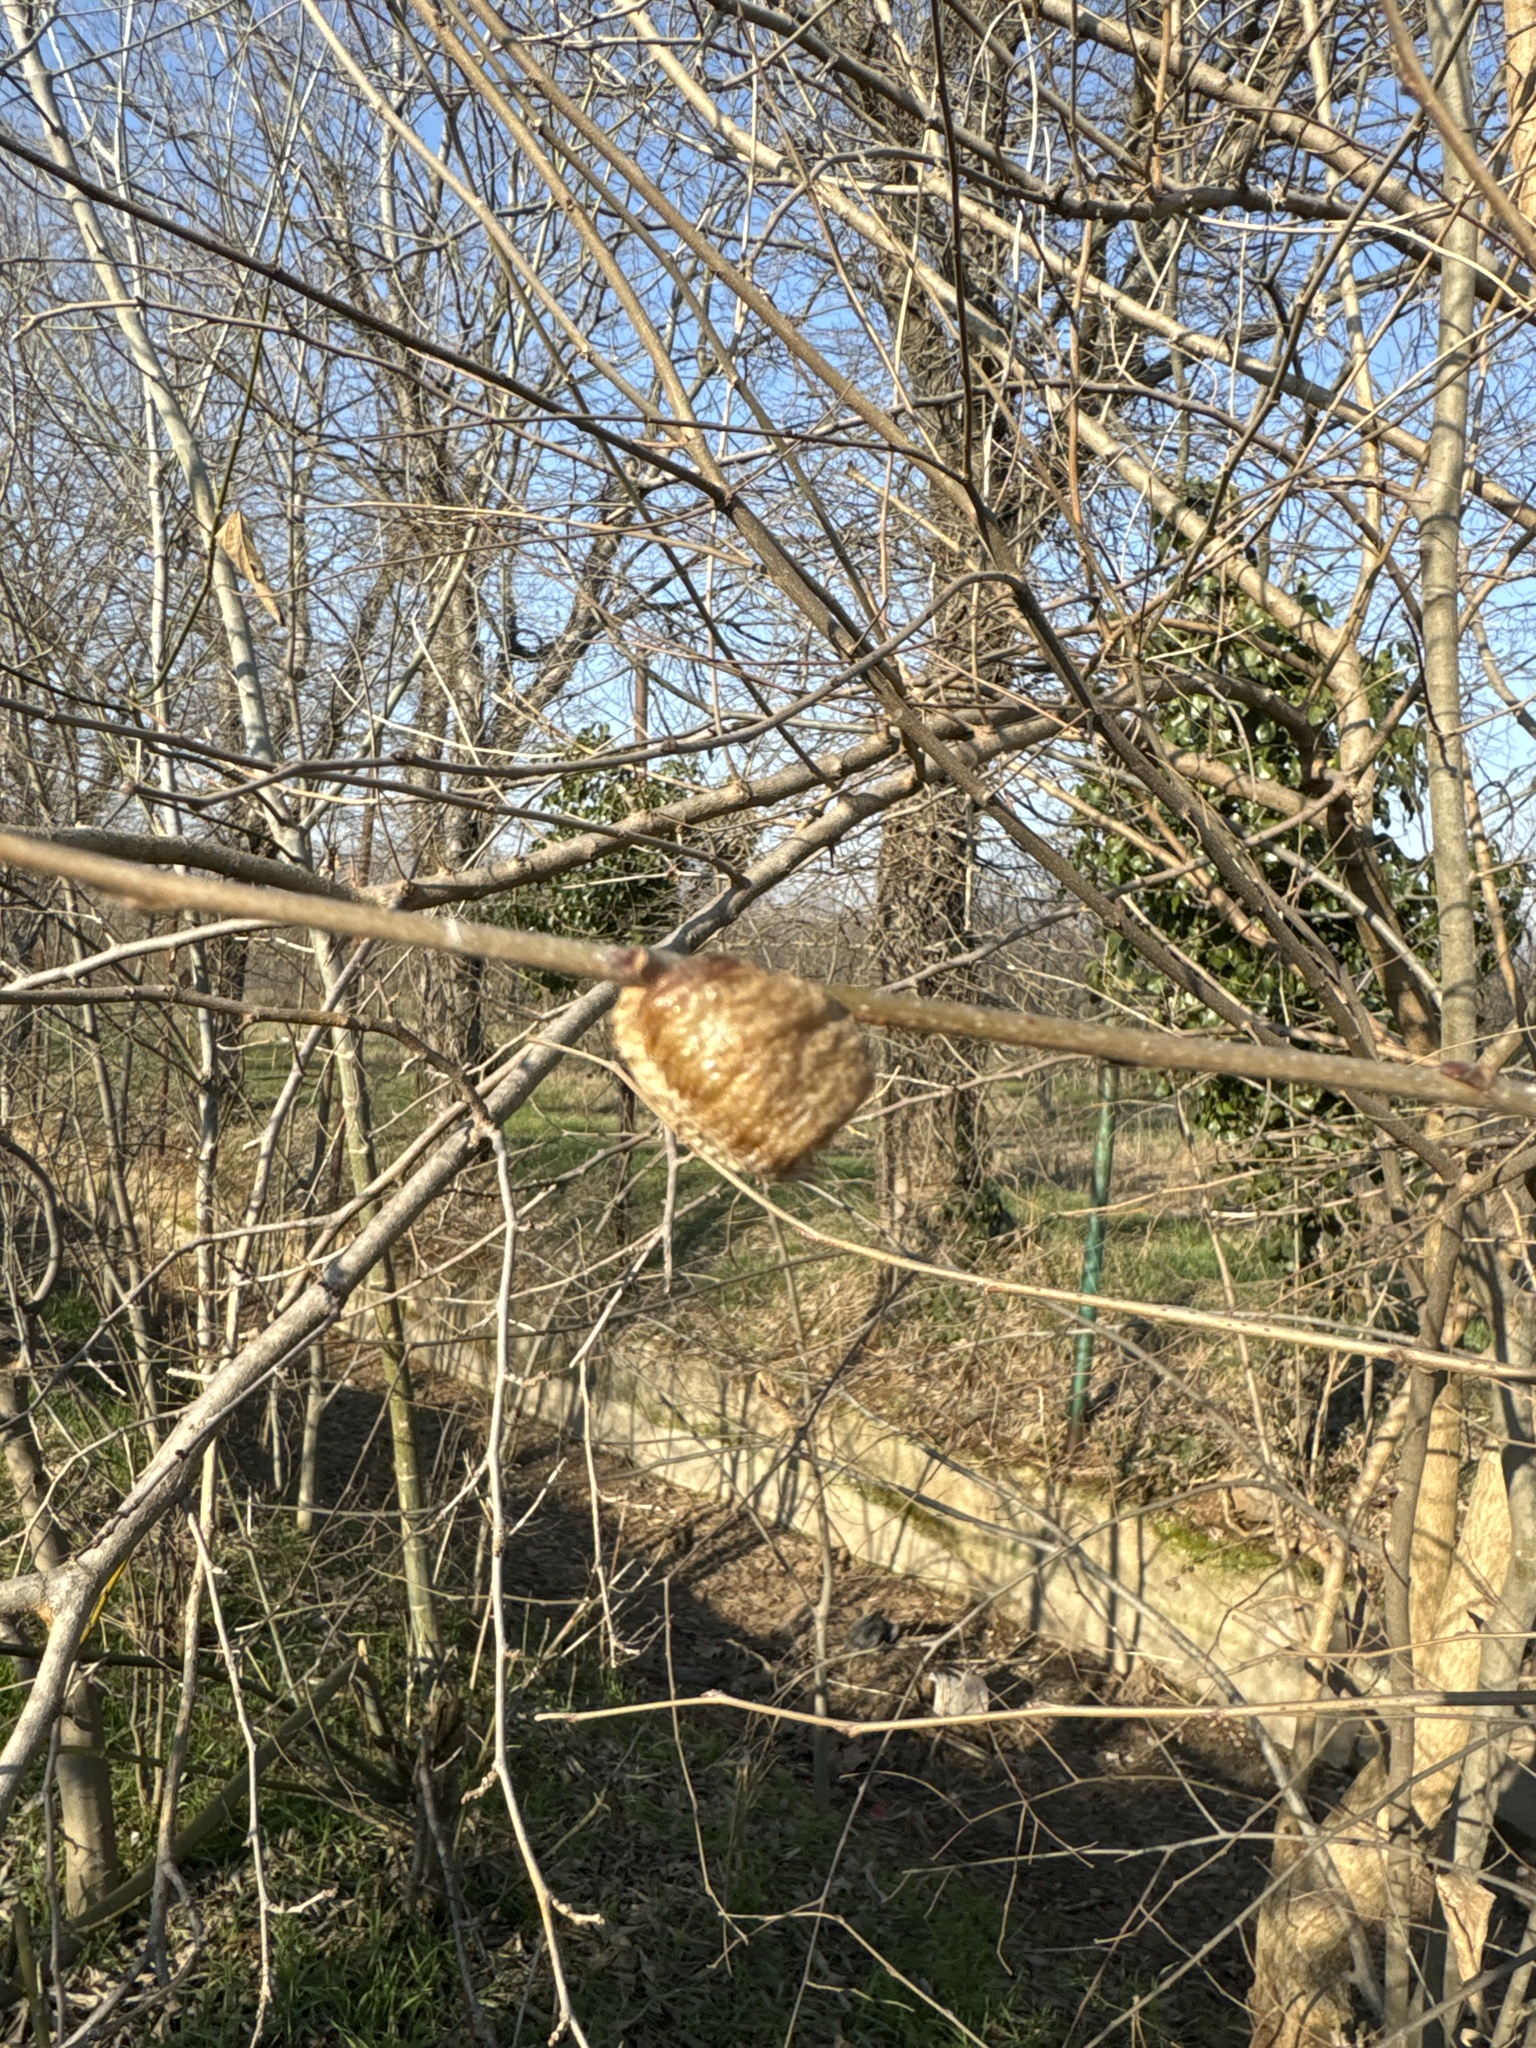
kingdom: Animalia
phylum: Arthropoda
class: Insecta
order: Mantodea
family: Mantidae
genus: Hierodula
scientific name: Hierodula transcaucasica
